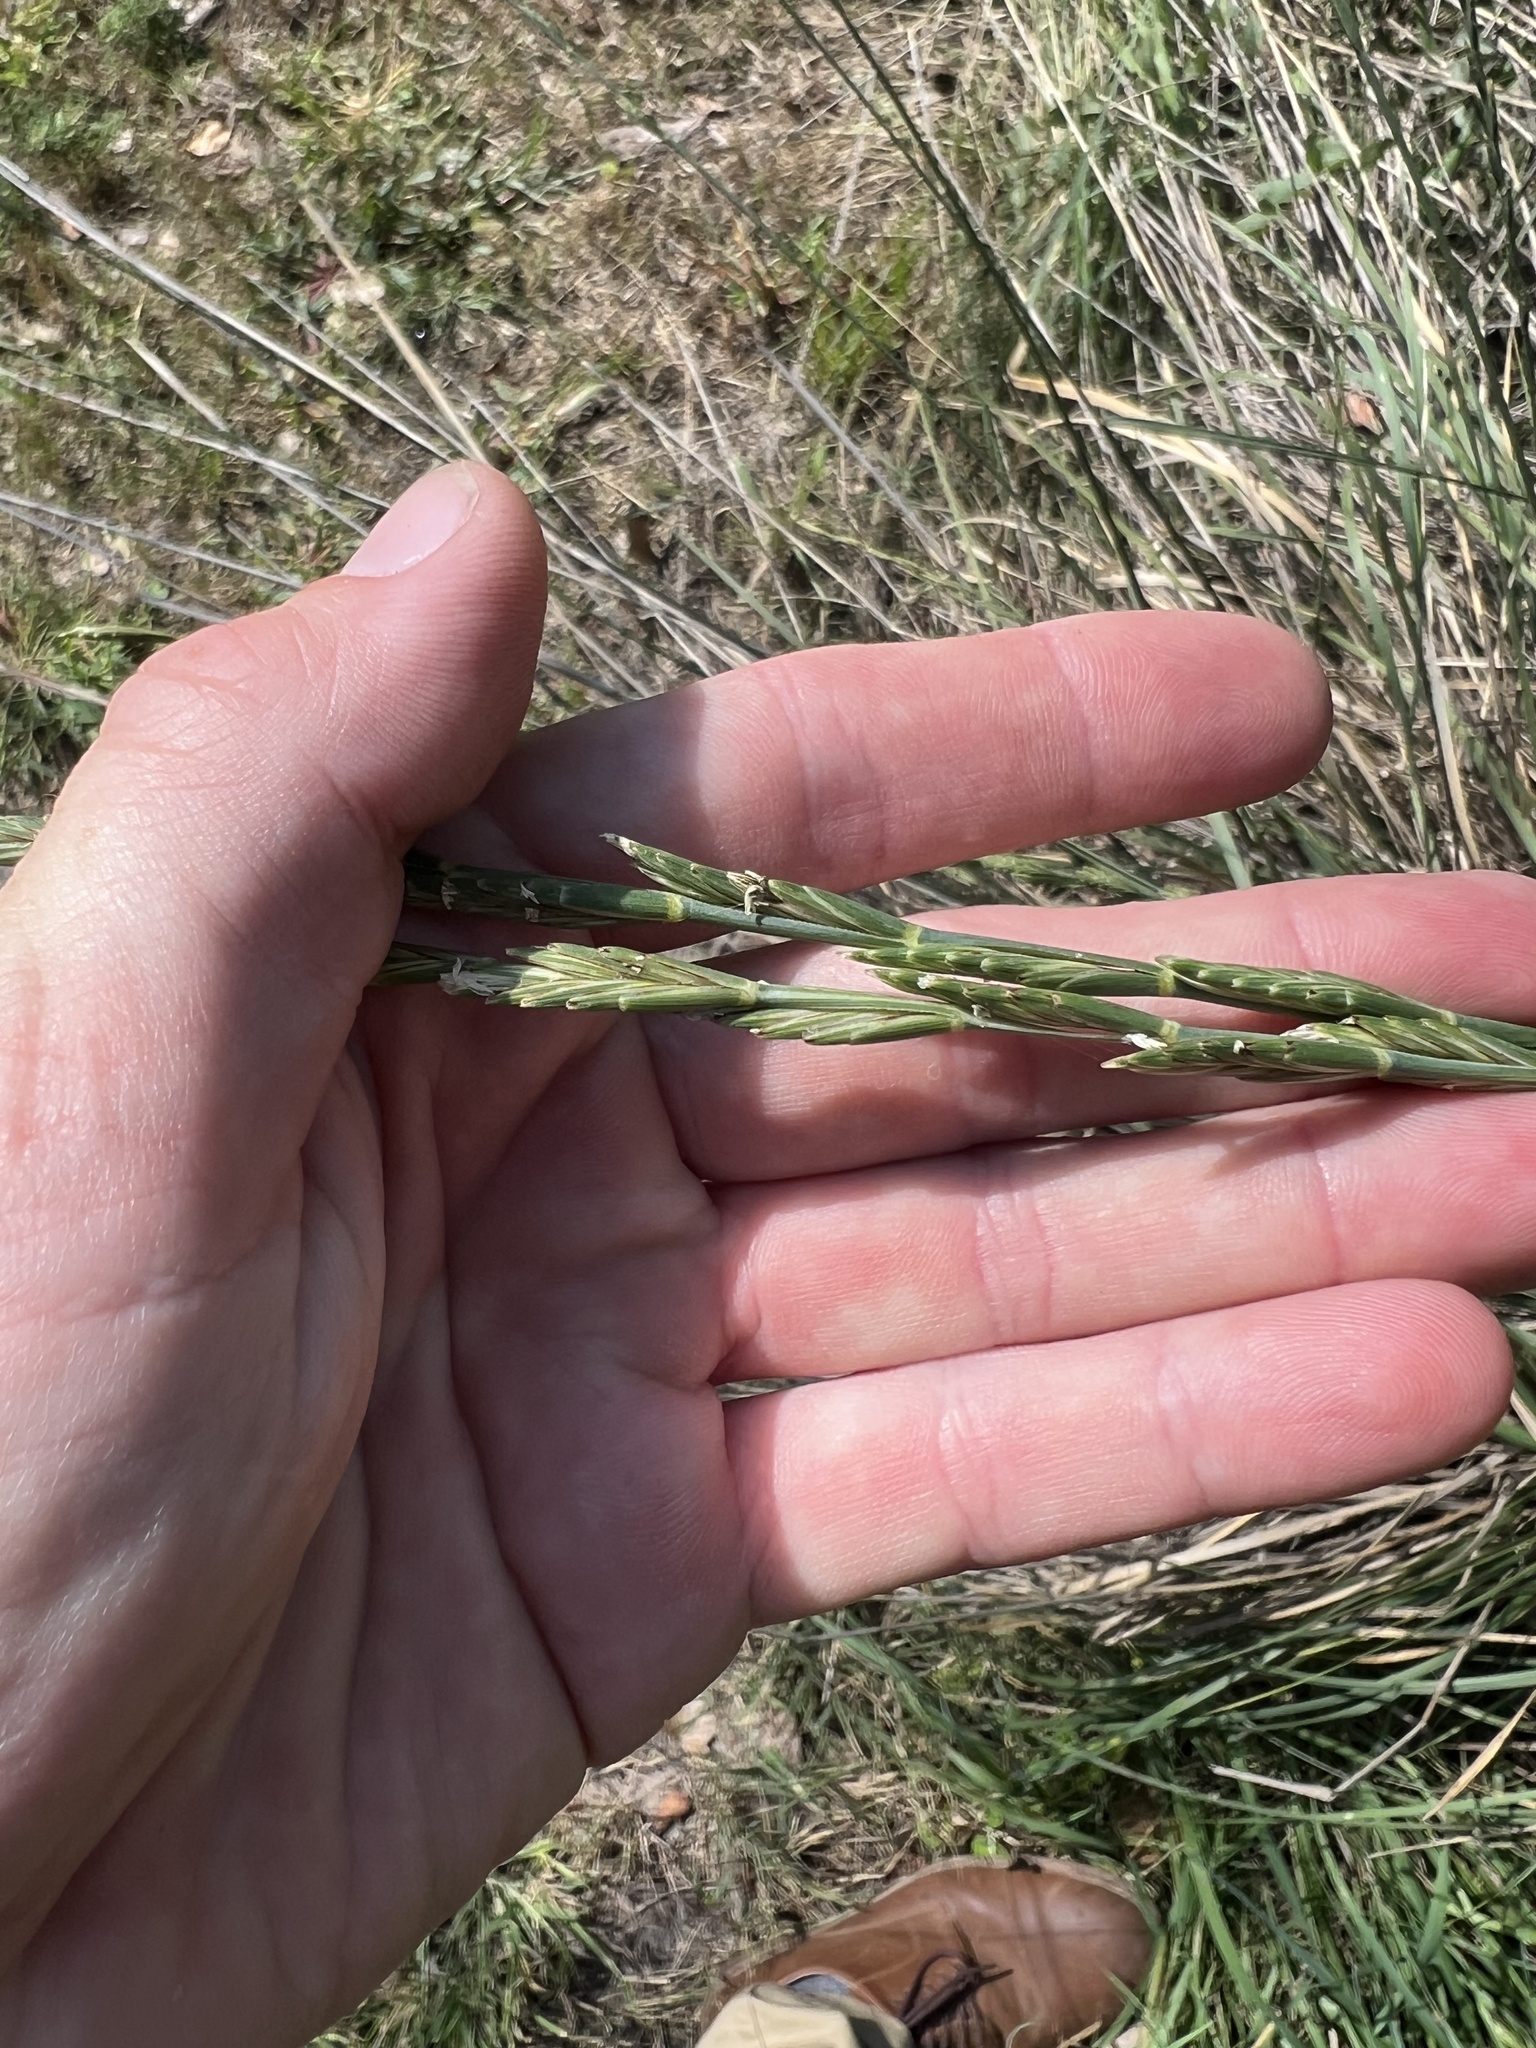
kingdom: Plantae
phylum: Tracheophyta
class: Liliopsida
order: Poales
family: Poaceae
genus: Thinopyrum
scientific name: Thinopyrum intermedium
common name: Intermediate wheatgrass
